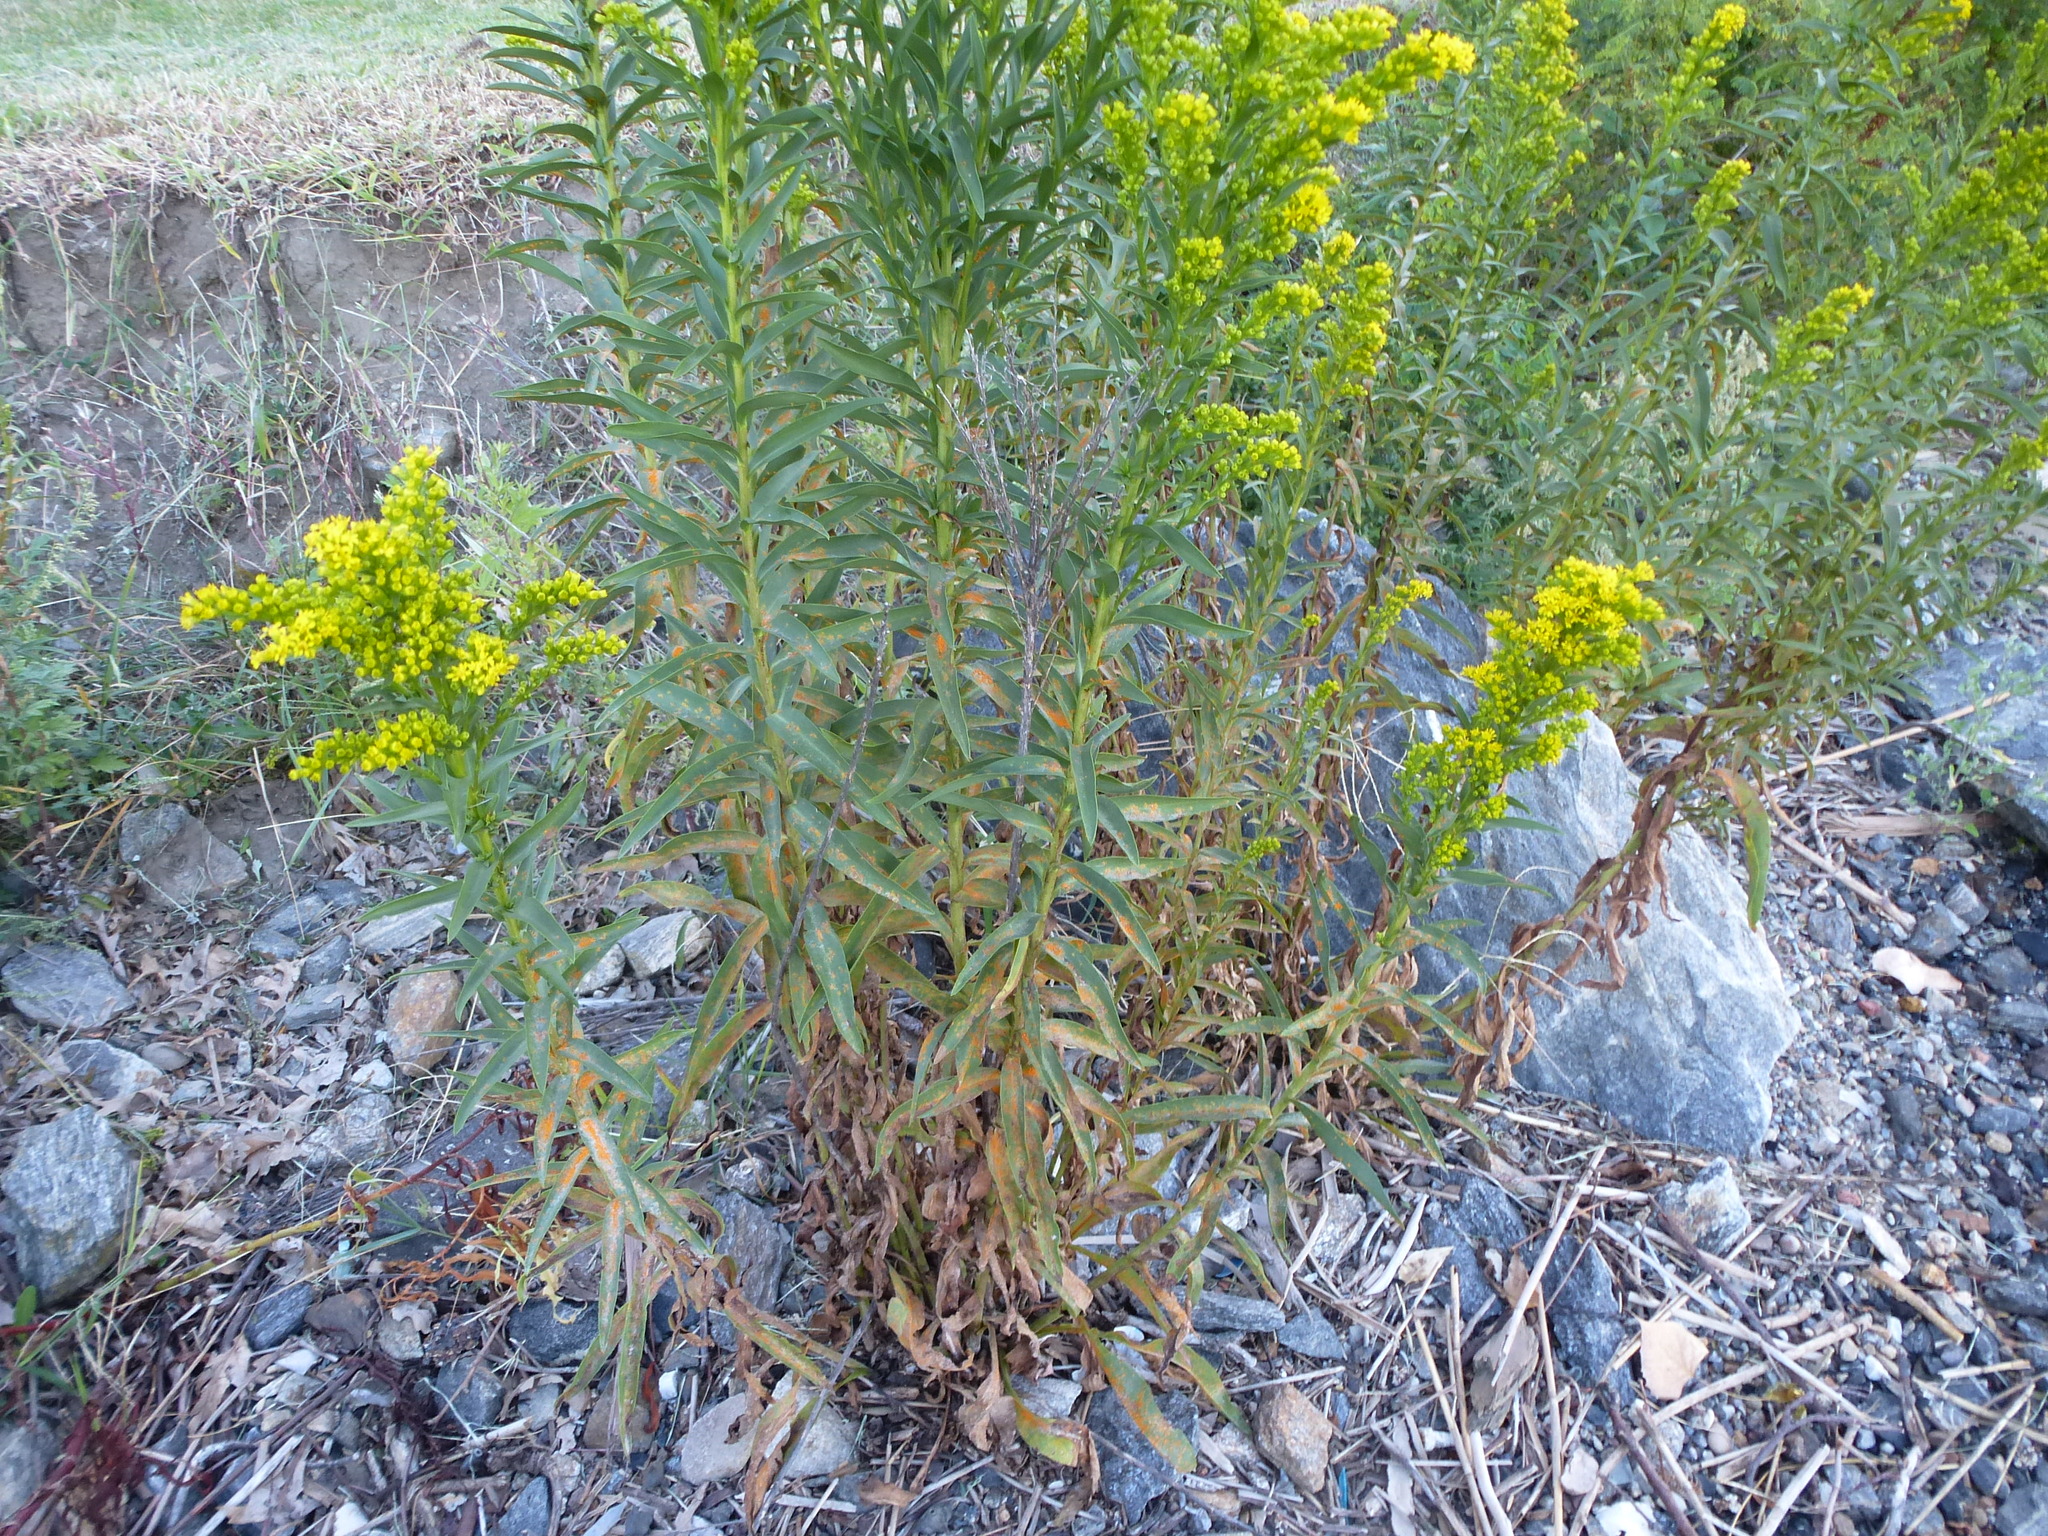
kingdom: Plantae
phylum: Tracheophyta
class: Magnoliopsida
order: Asterales
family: Asteraceae
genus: Solidago
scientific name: Solidago sempervirens
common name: Salt-marsh goldenrod
